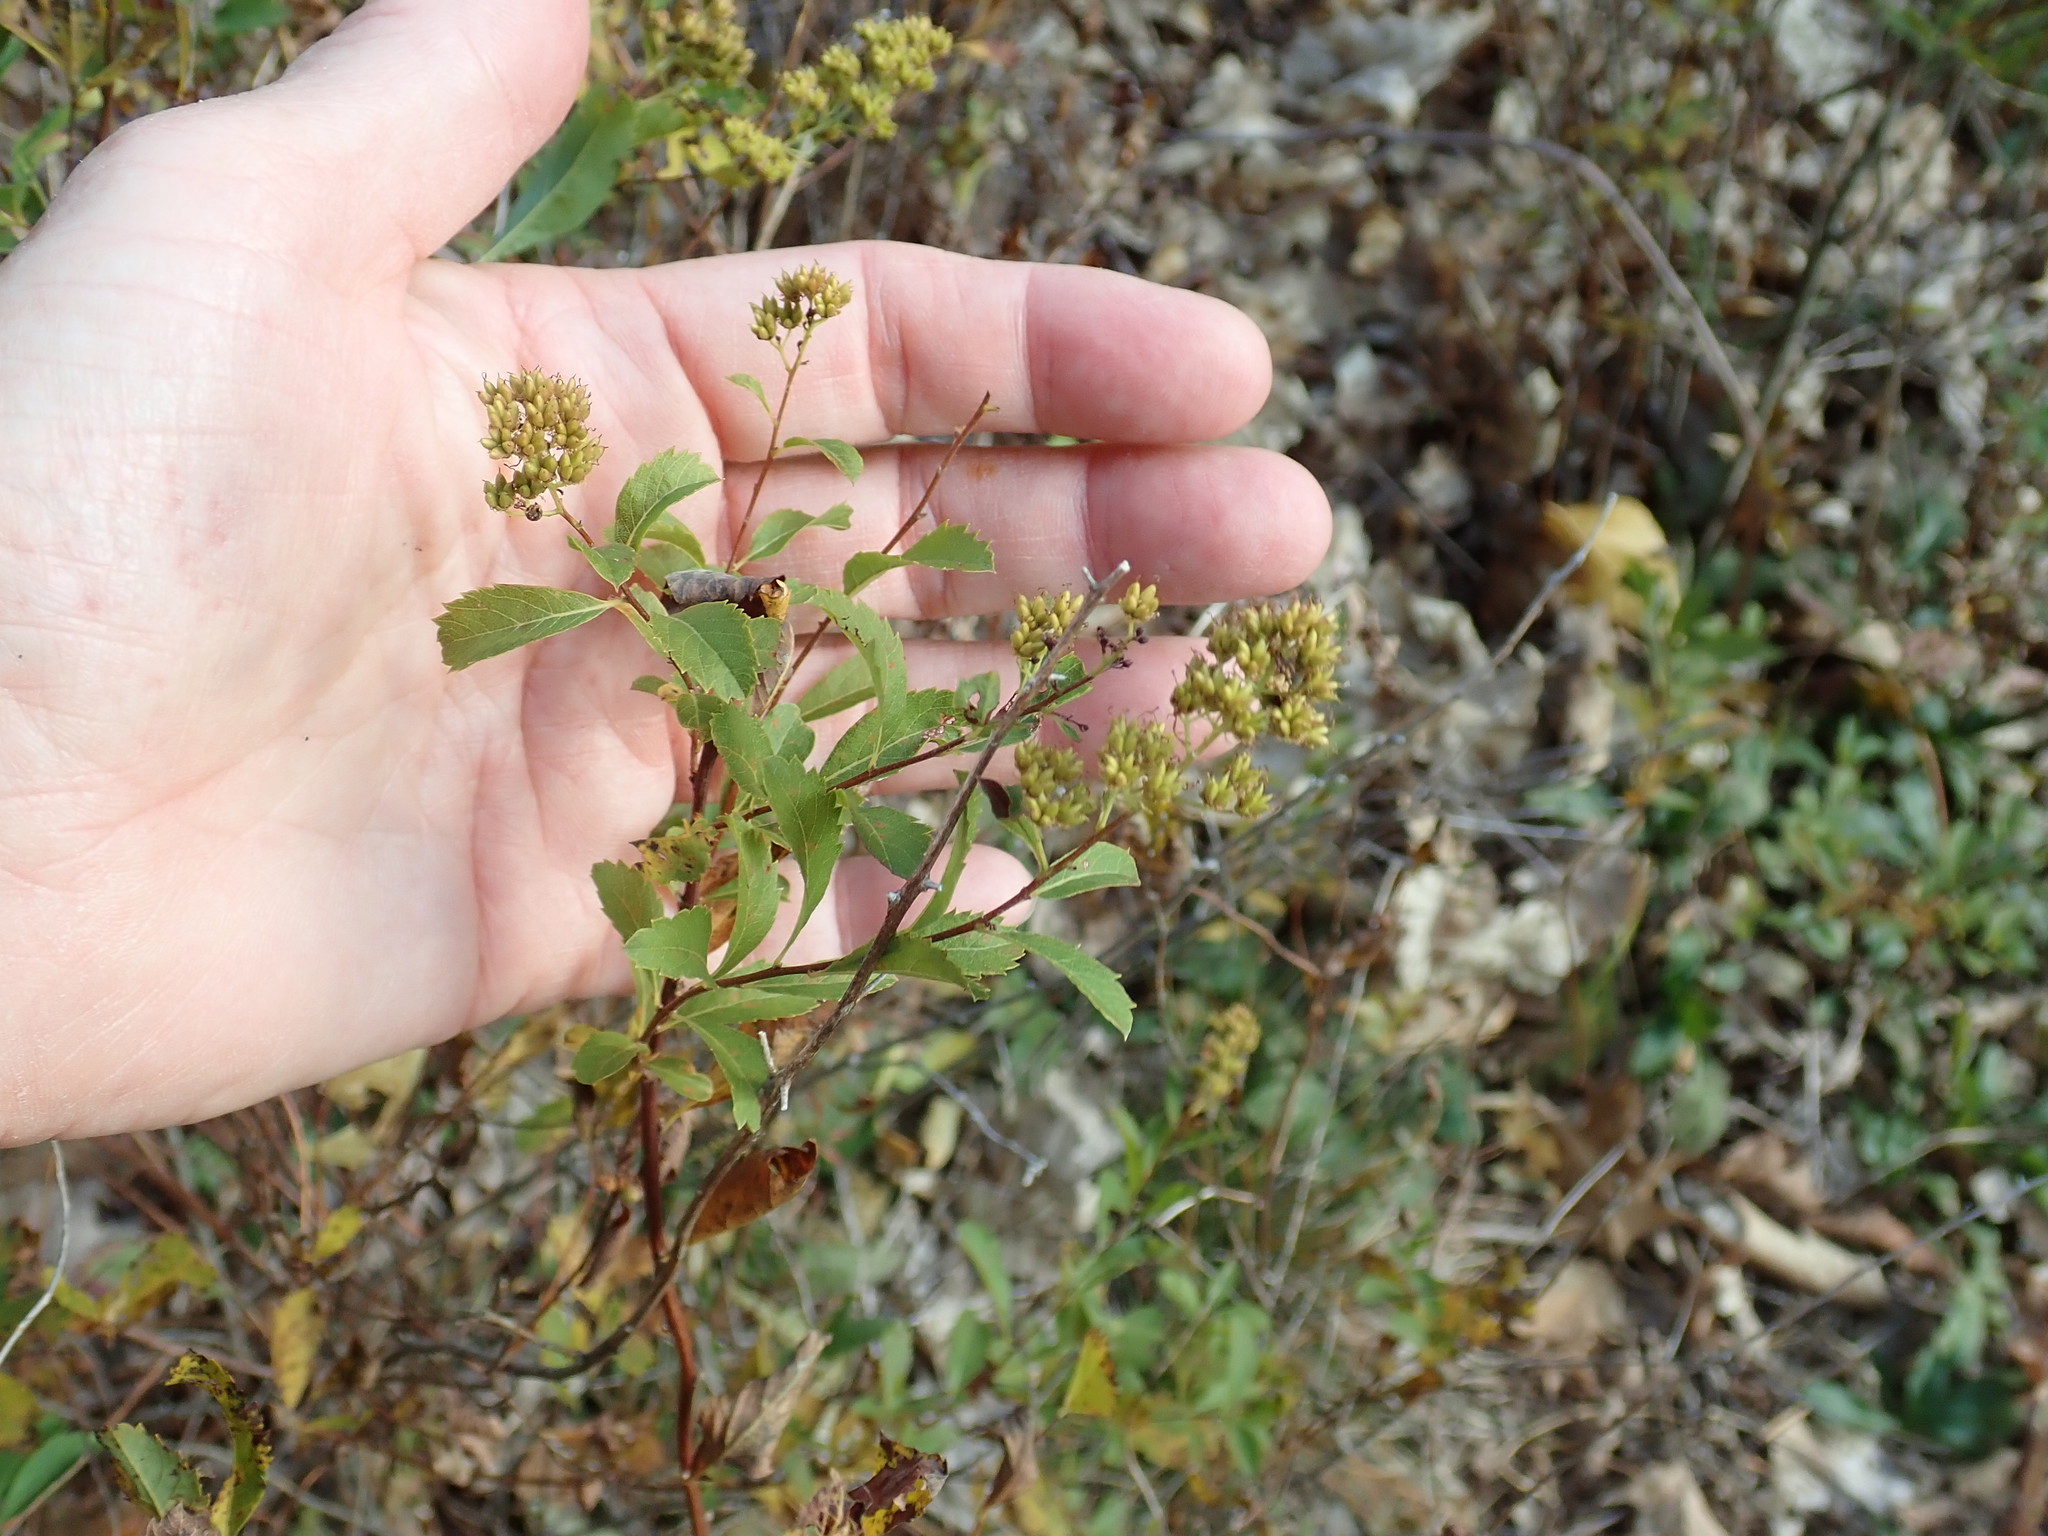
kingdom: Plantae
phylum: Tracheophyta
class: Magnoliopsida
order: Rosales
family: Rosaceae
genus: Spiraea
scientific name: Spiraea alba
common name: Pale bridewort
